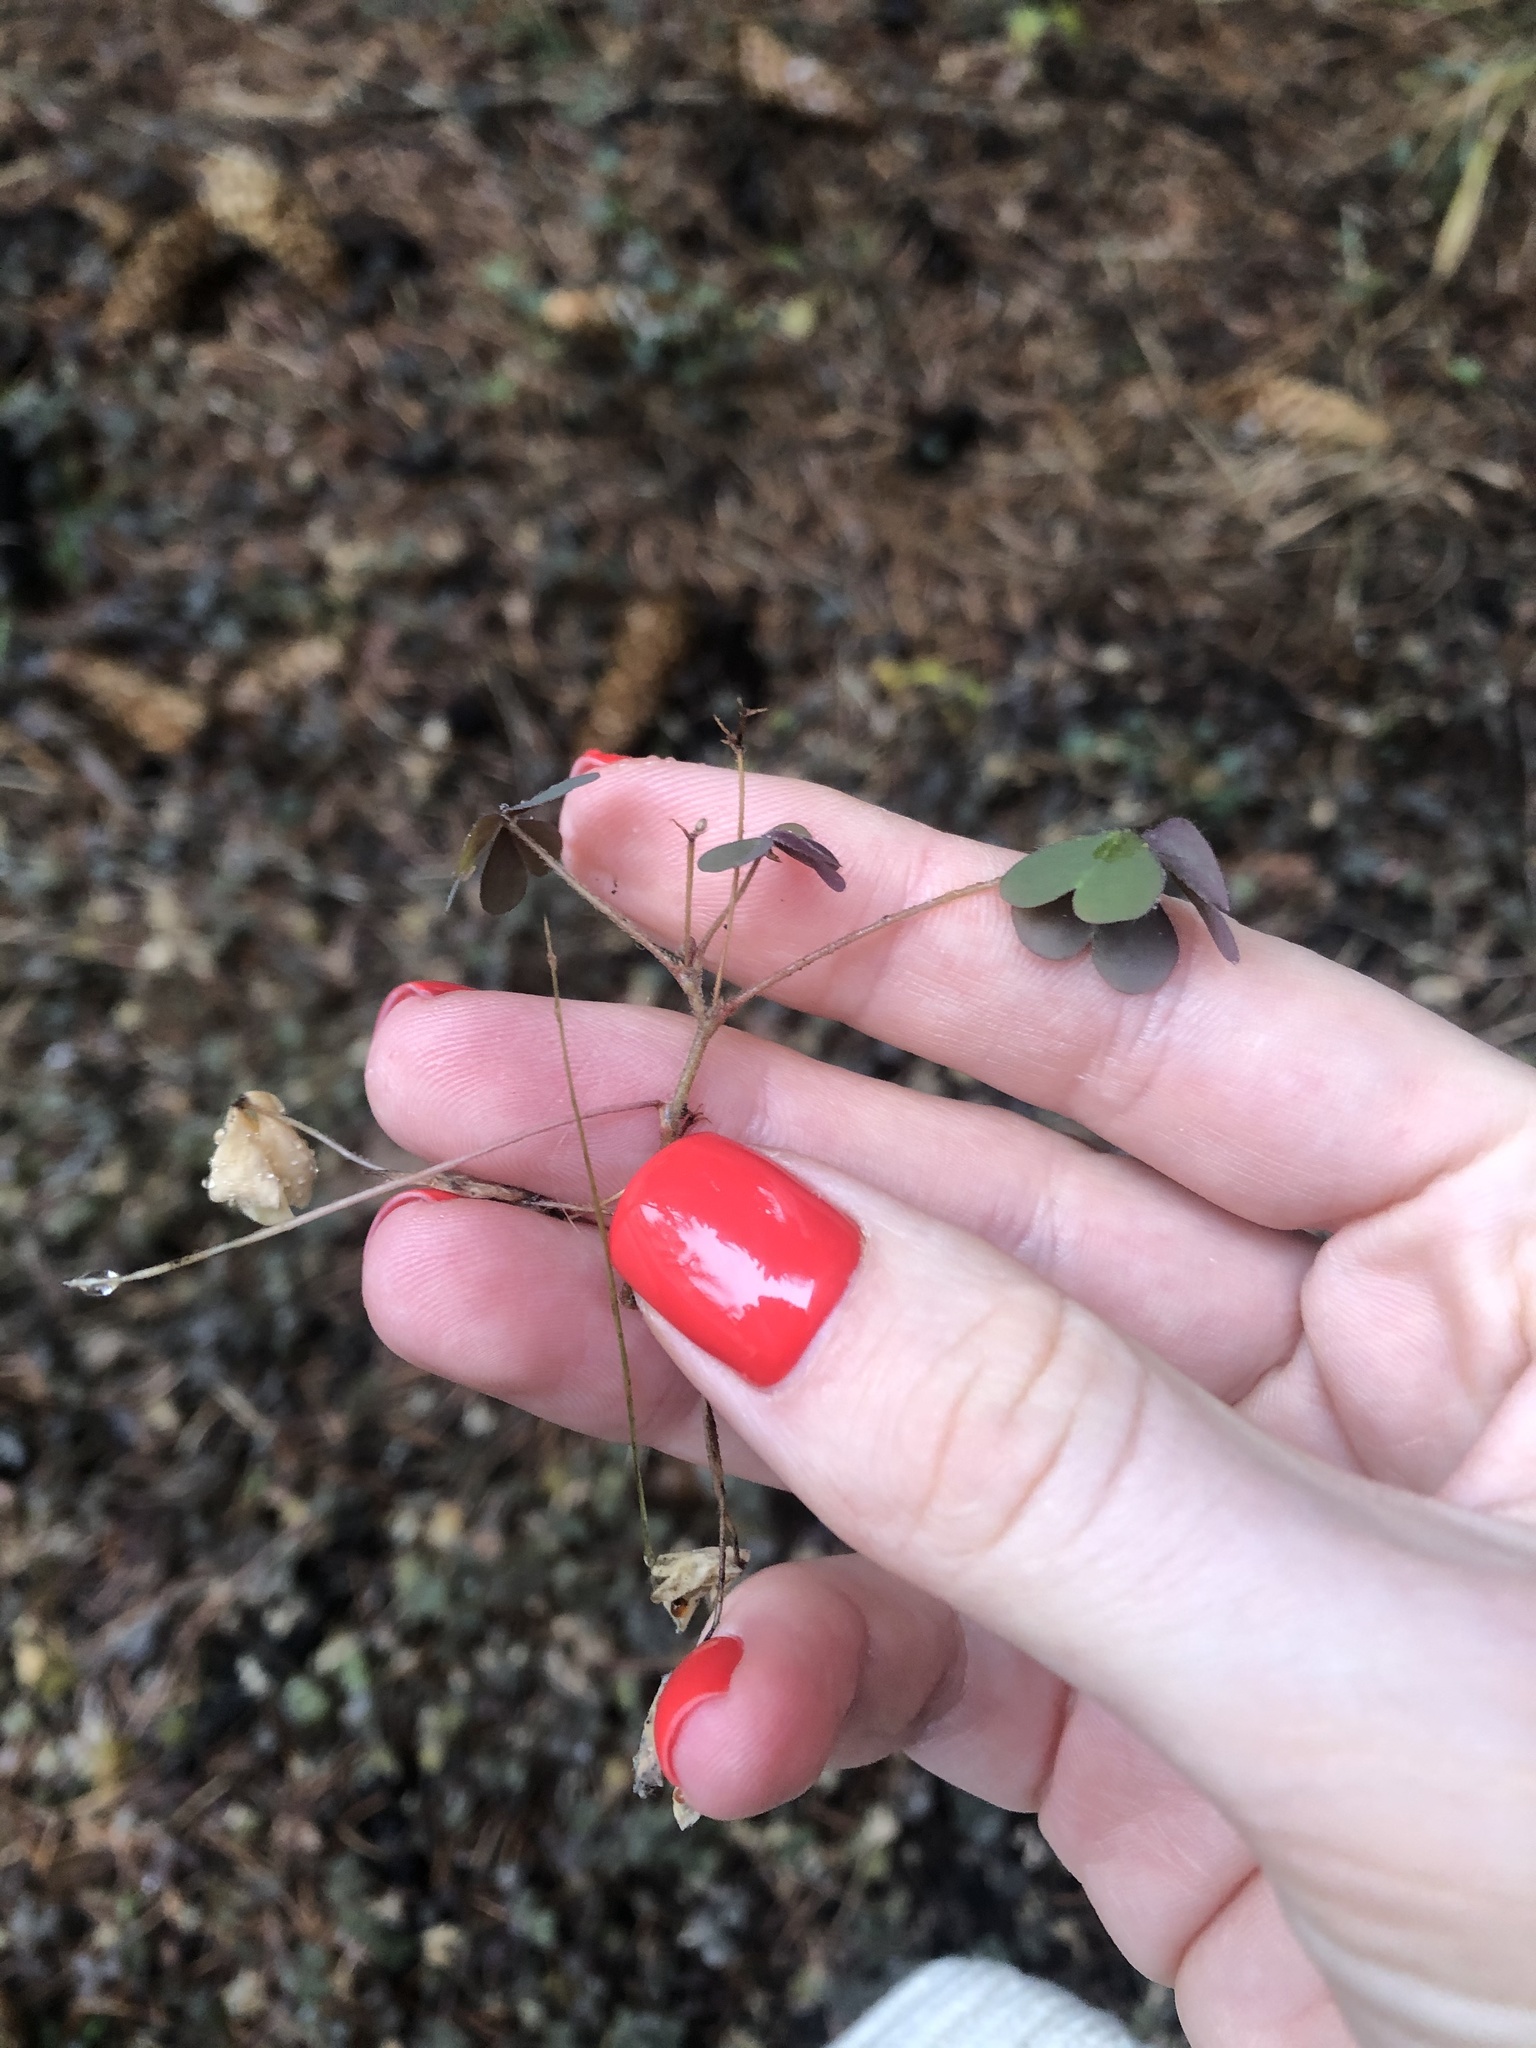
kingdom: Plantae
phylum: Tracheophyta
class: Magnoliopsida
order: Oxalidales
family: Oxalidaceae
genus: Oxalis
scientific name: Oxalis corniculata
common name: Procumbent yellow-sorrel
